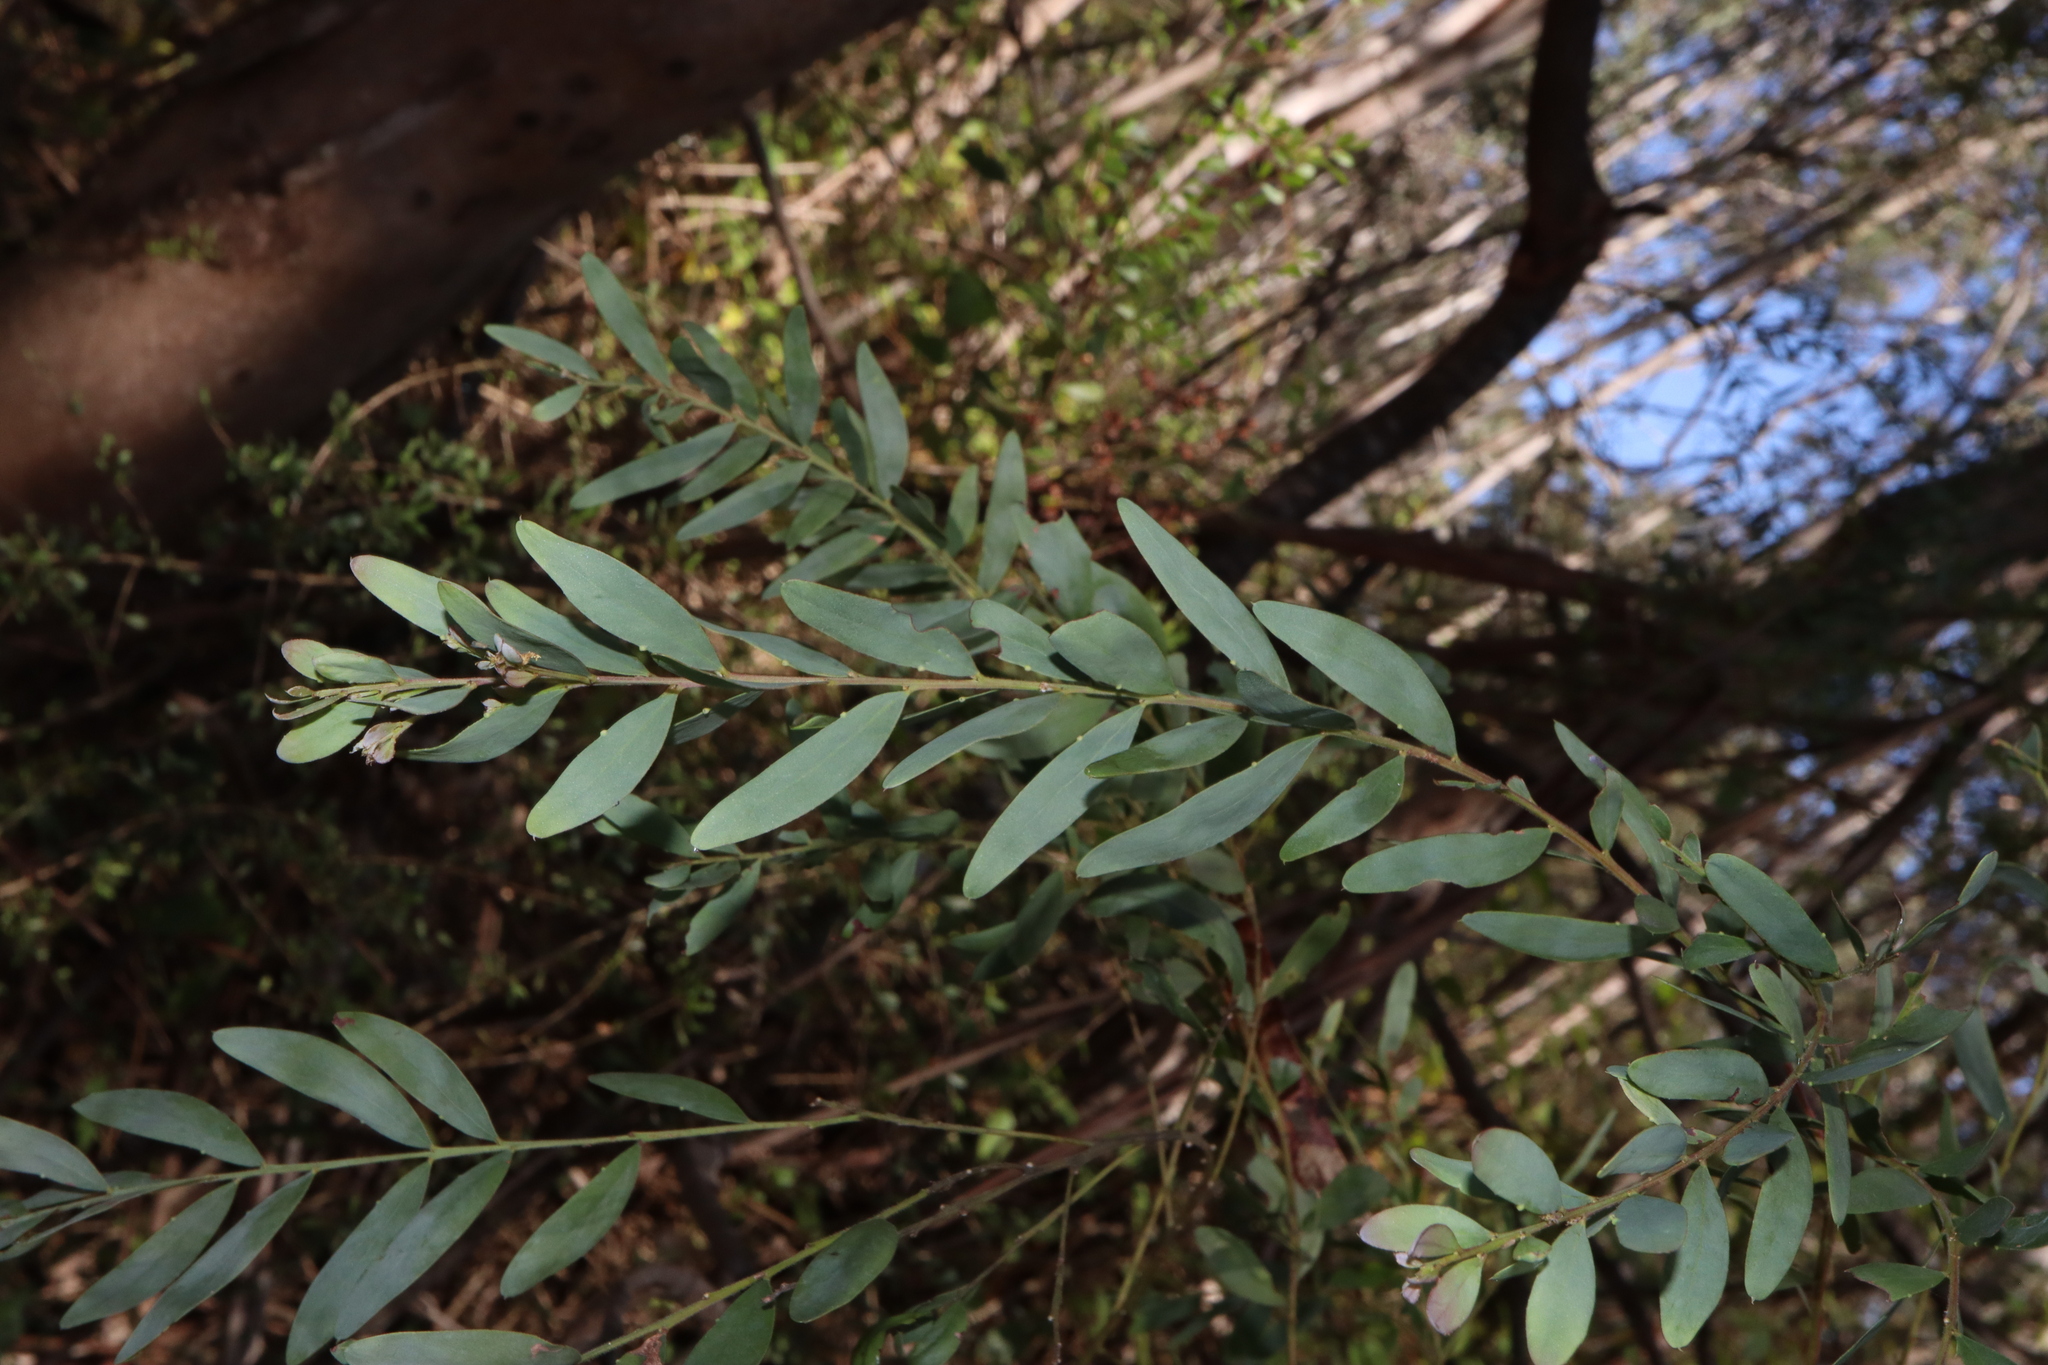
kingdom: Plantae
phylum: Tracheophyta
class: Magnoliopsida
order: Fabales
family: Fabaceae
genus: Acacia
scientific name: Acacia prominens
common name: Gosford wattle
